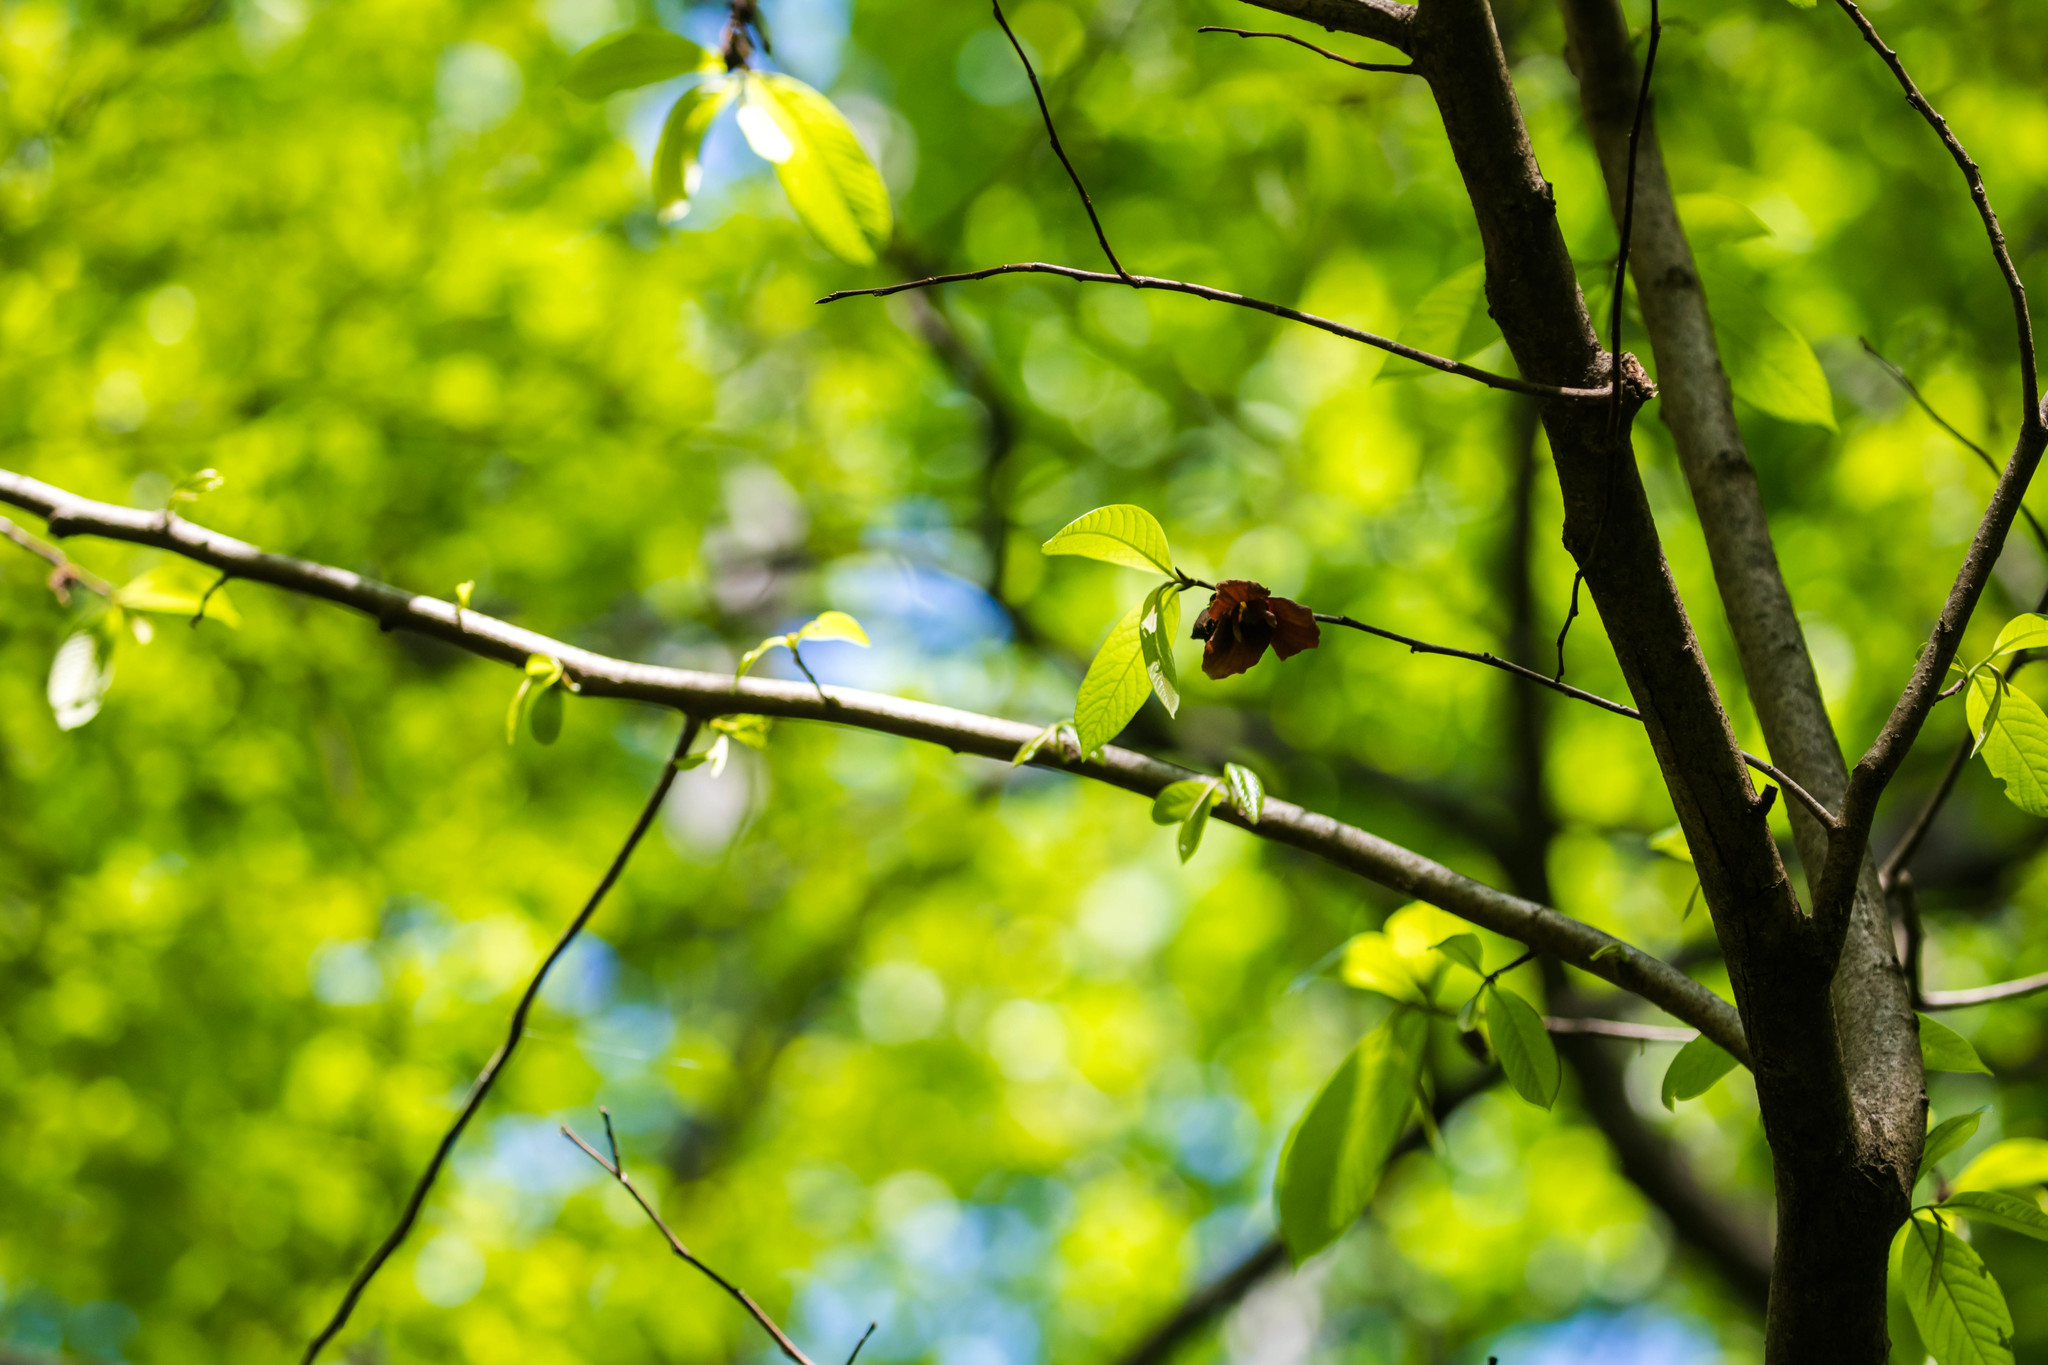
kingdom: Plantae
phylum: Tracheophyta
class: Magnoliopsida
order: Magnoliales
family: Annonaceae
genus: Asimina
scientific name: Asimina triloba
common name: Dog-banana
